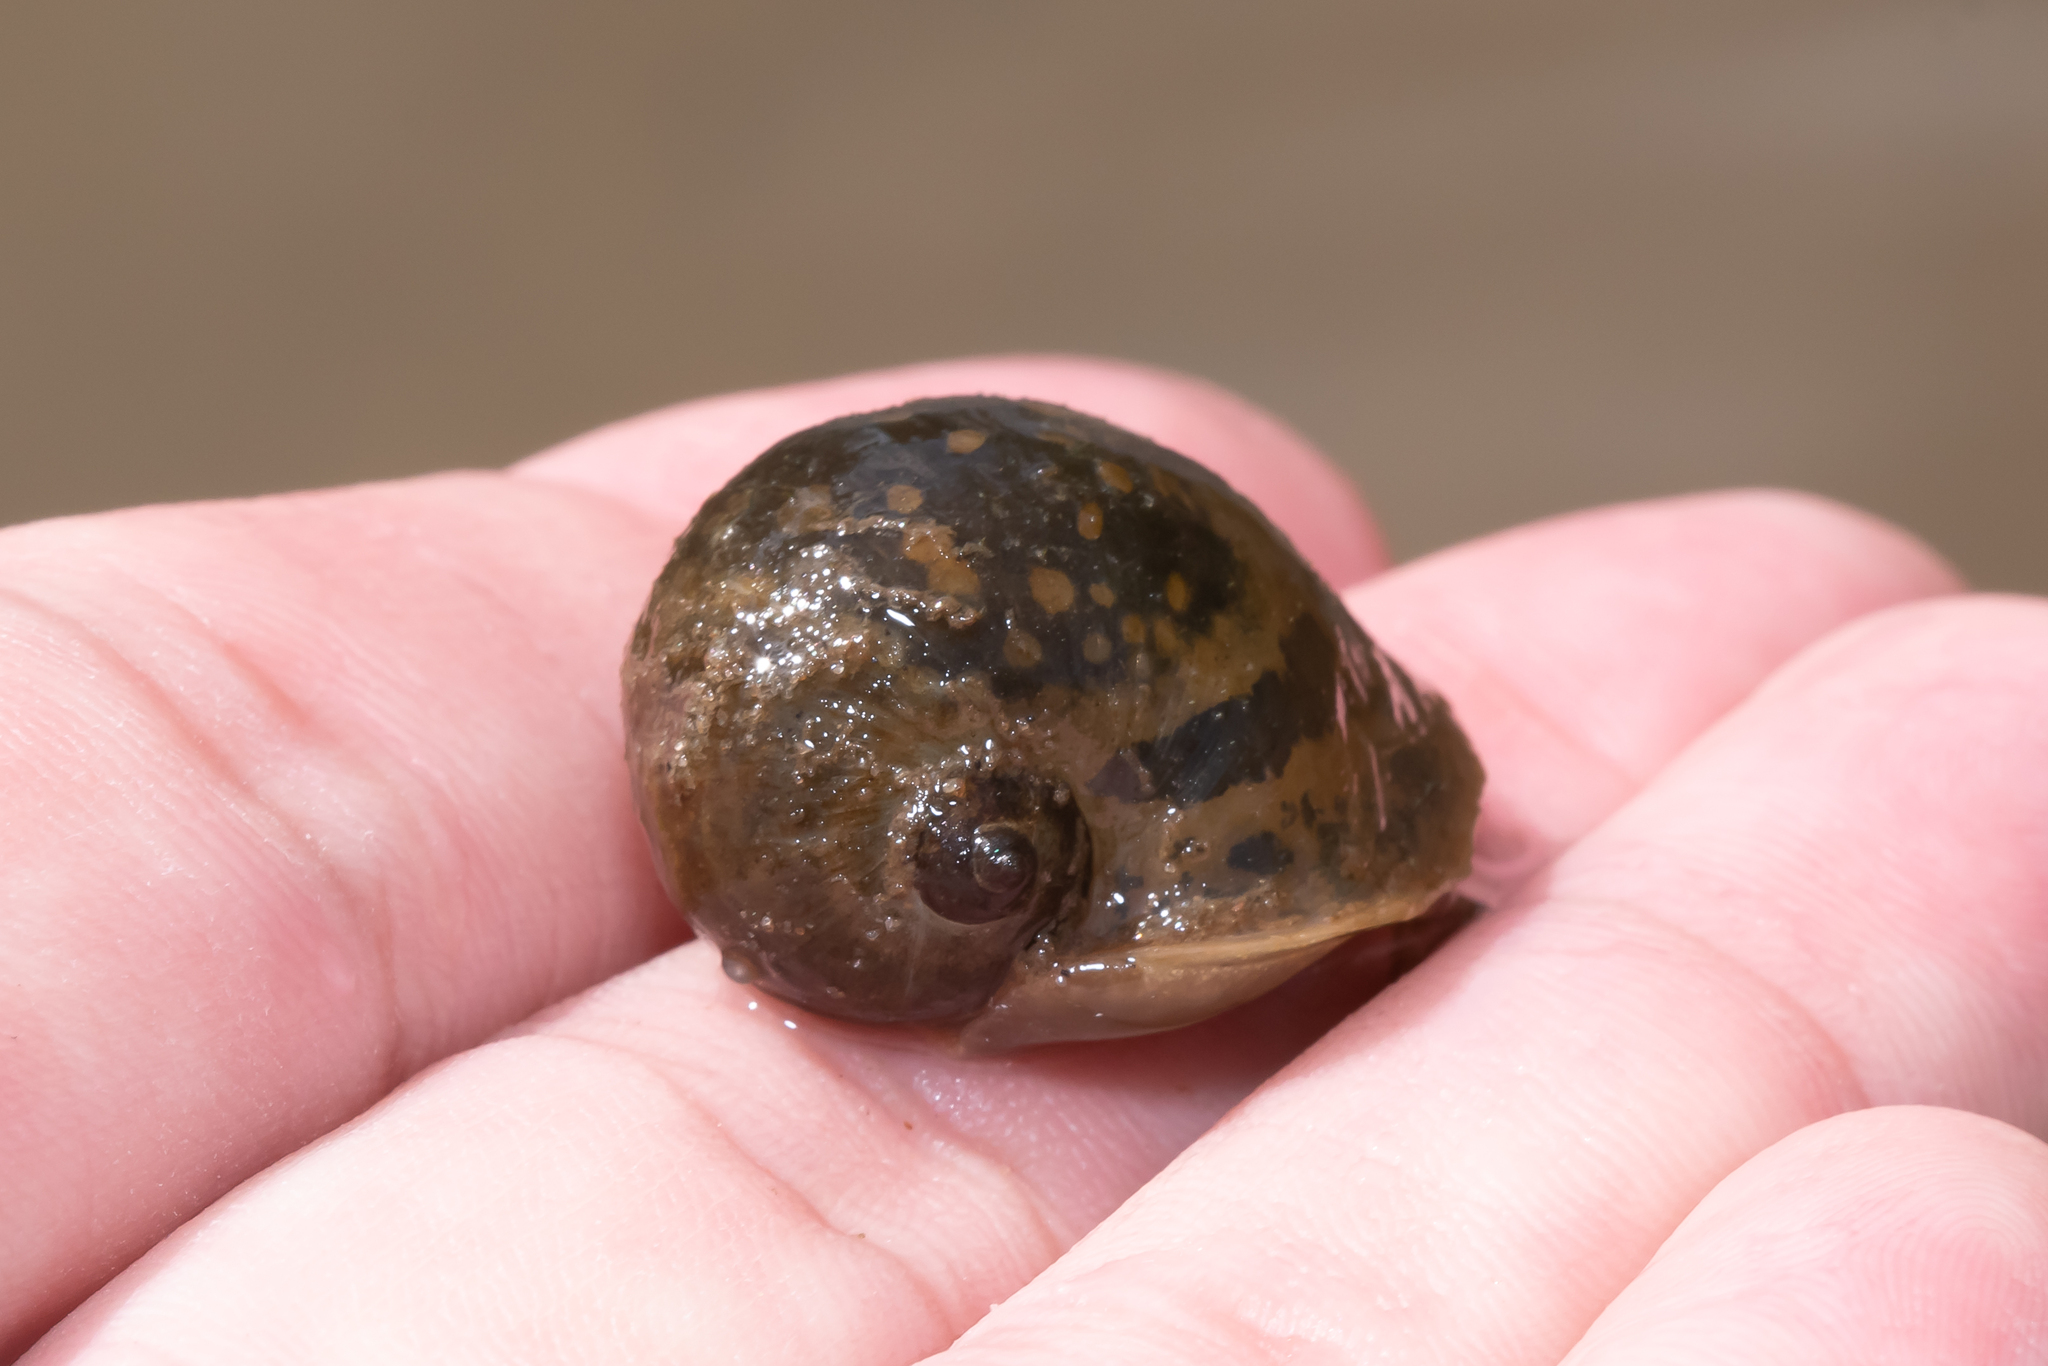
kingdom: Animalia
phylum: Mollusca
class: Gastropoda
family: Lymnaeidae
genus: Radix
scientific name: Radix auricularia
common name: Ear pond snail
